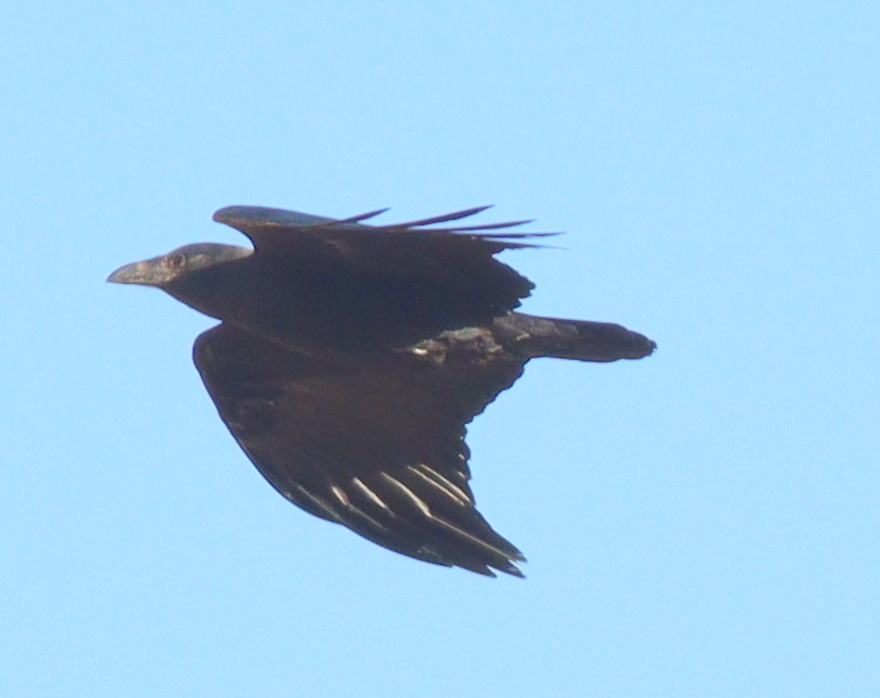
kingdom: Animalia
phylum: Chordata
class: Aves
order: Passeriformes
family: Corvidae
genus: Corvus
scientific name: Corvus ruficollis
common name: Brown-necked raven
